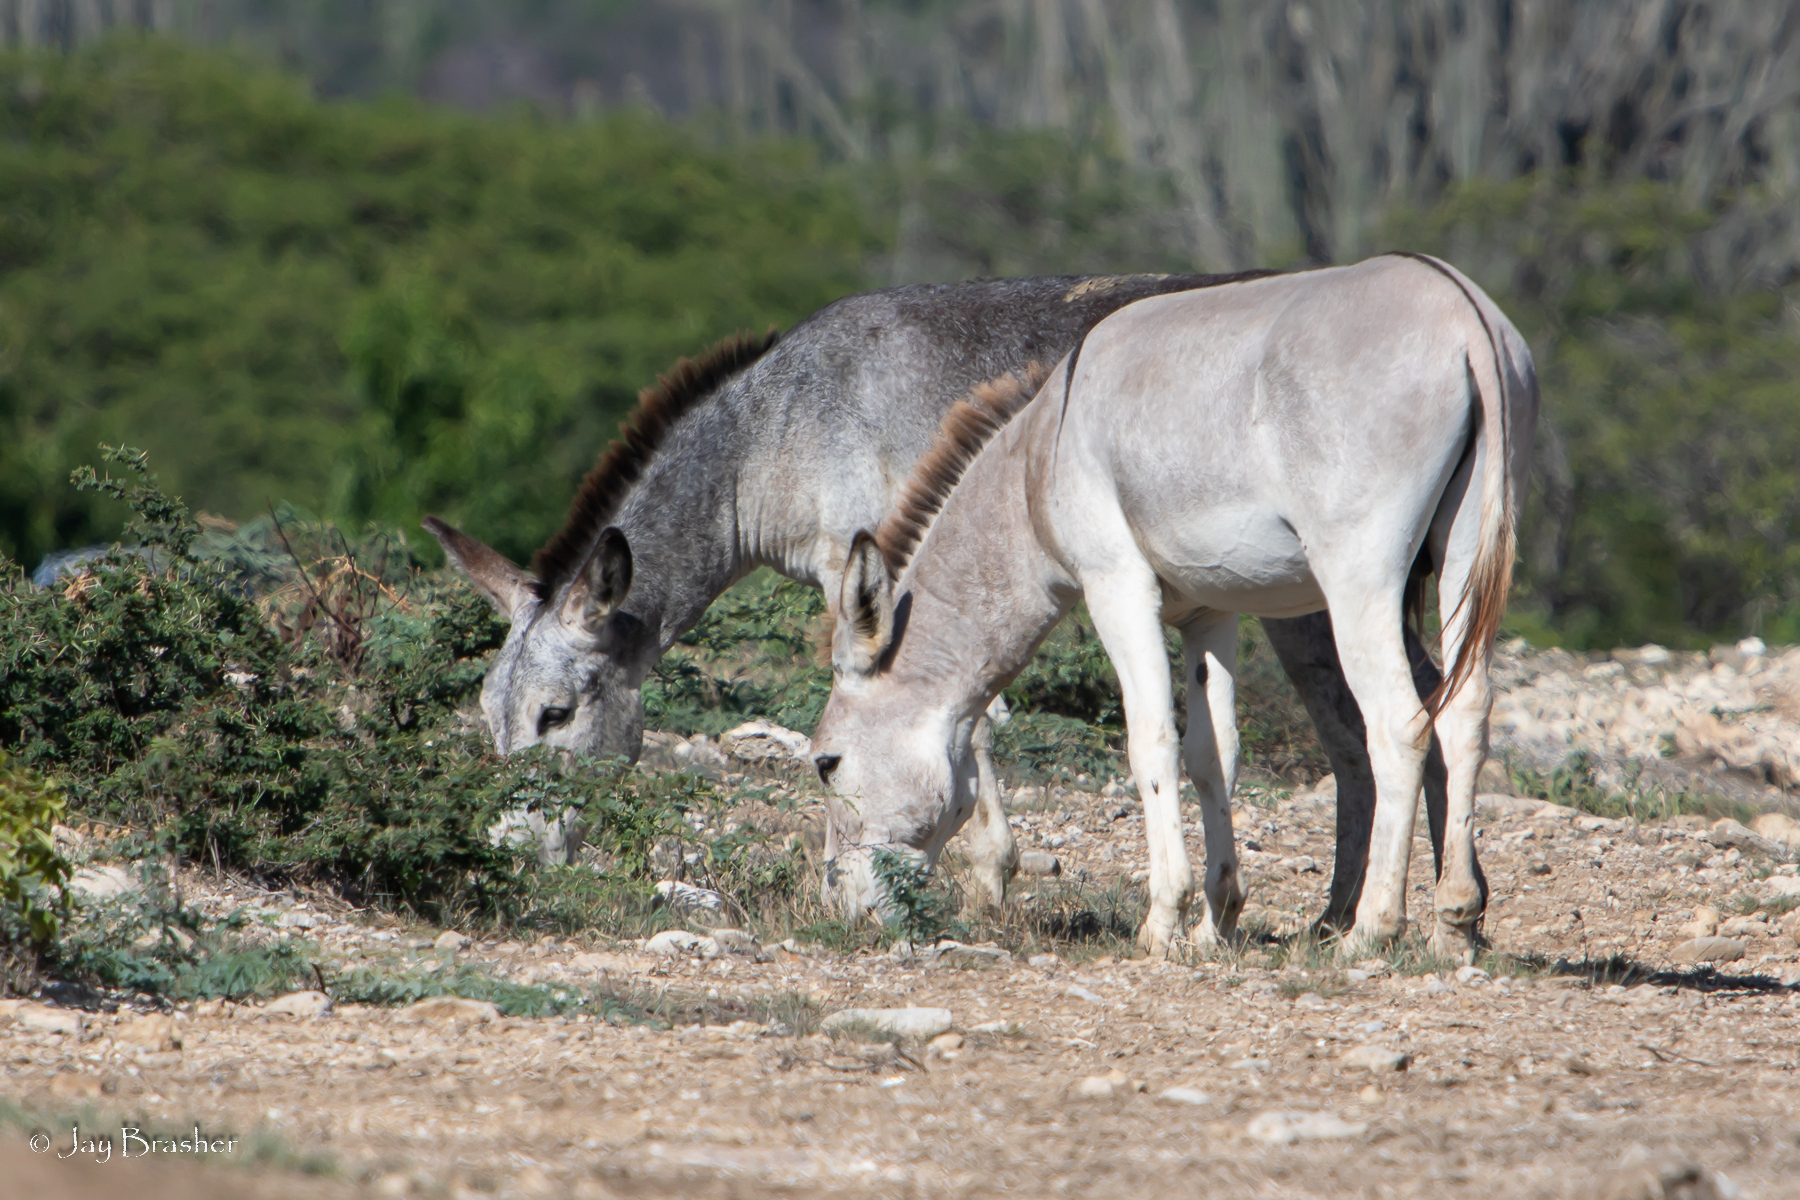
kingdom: Animalia
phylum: Chordata
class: Mammalia
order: Perissodactyla
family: Equidae
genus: Equus
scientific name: Equus asinus
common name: Ass
